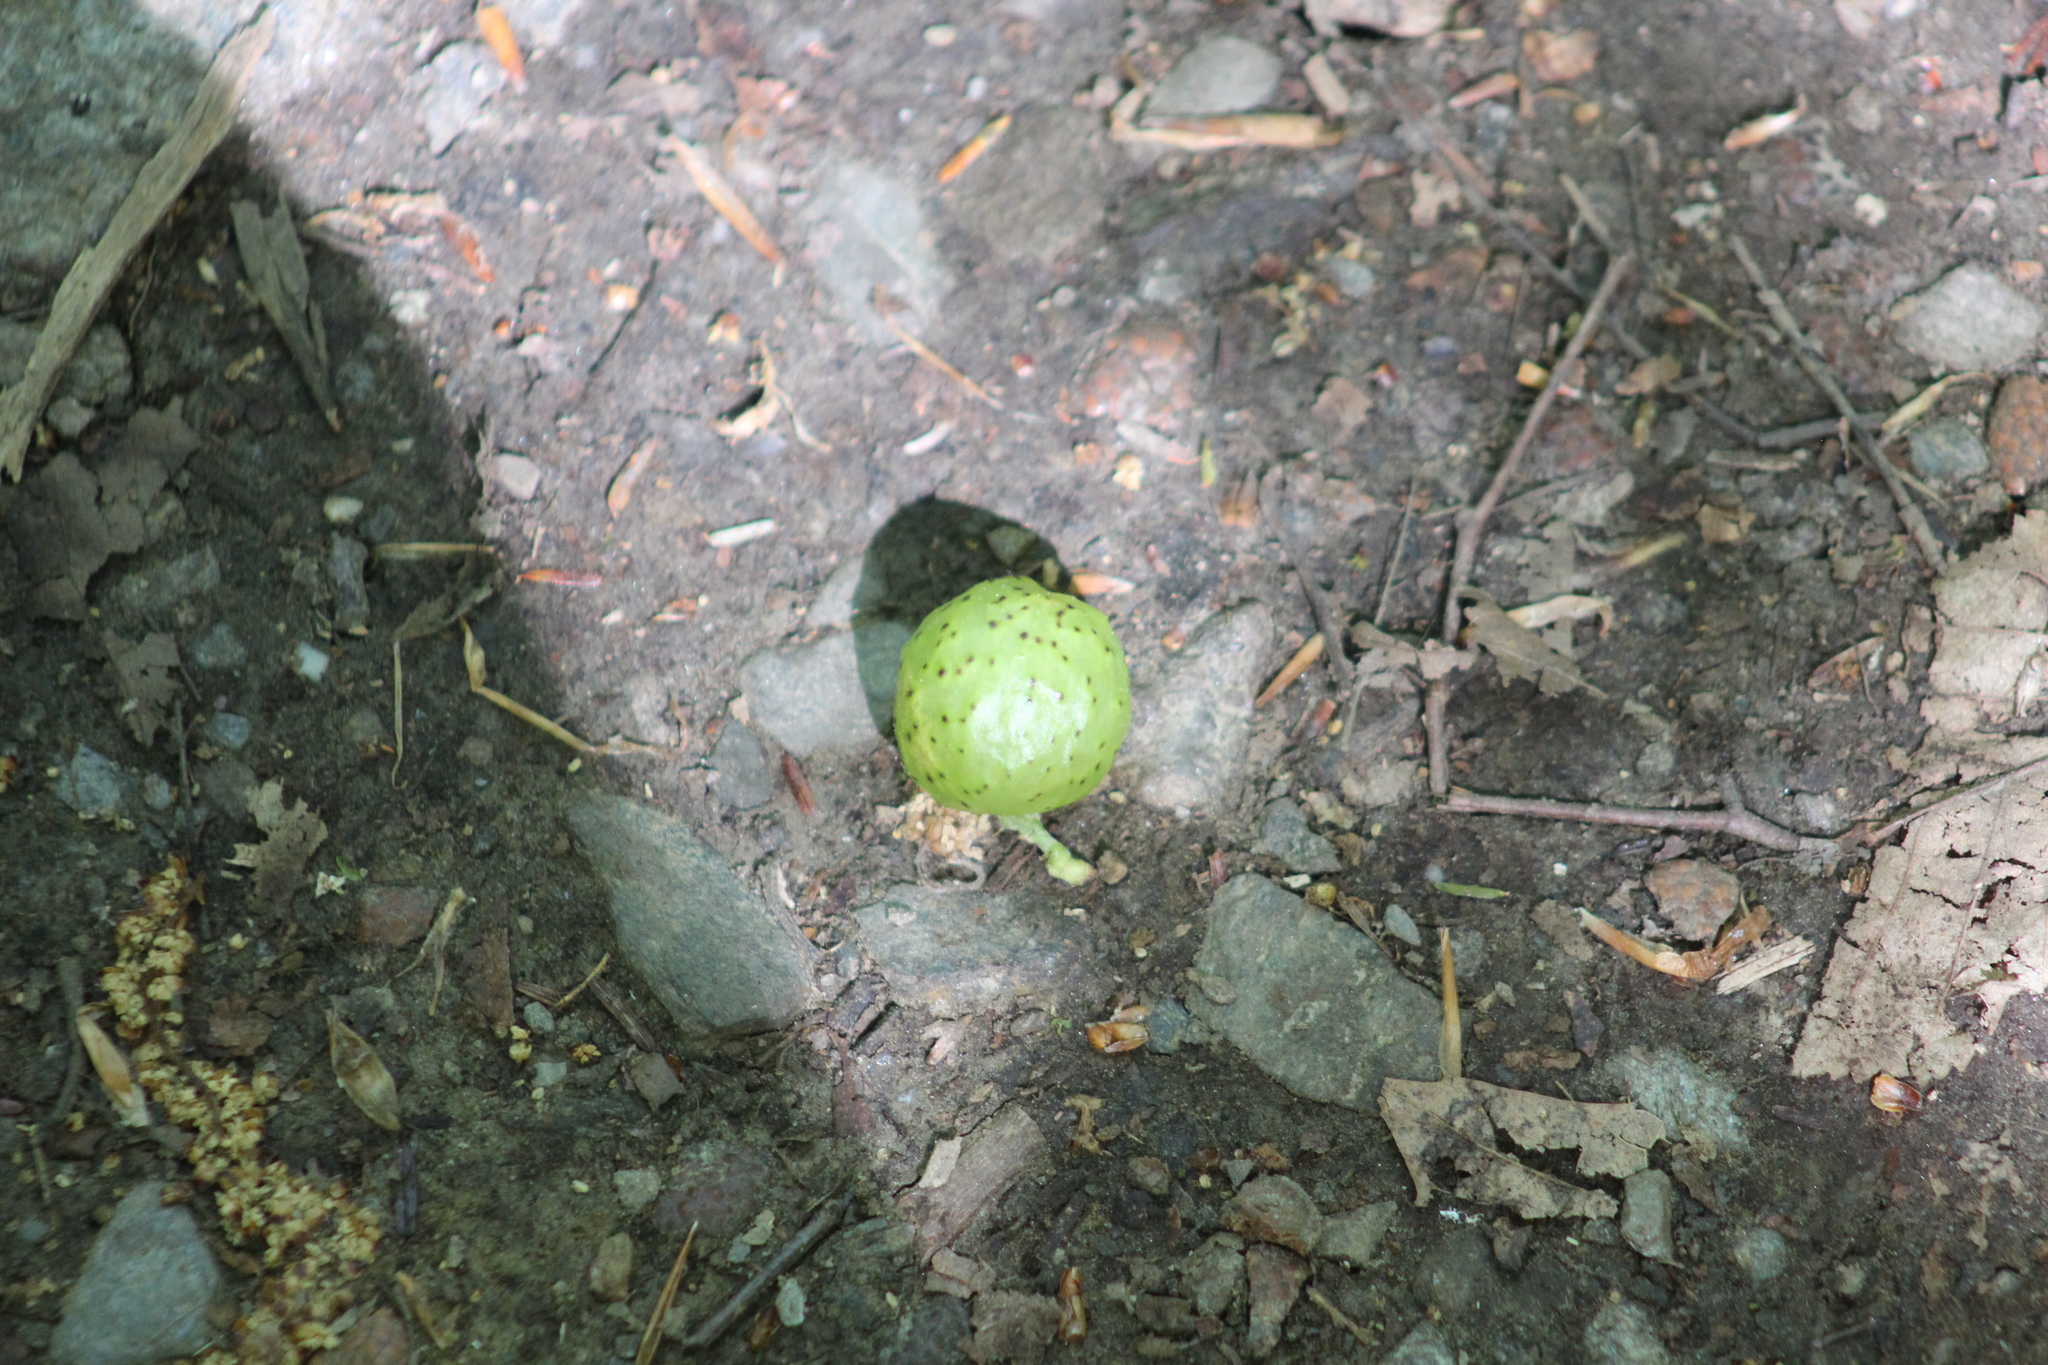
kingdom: Animalia
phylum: Arthropoda
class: Insecta
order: Hymenoptera
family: Cynipidae
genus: Amphibolips
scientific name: Amphibolips
